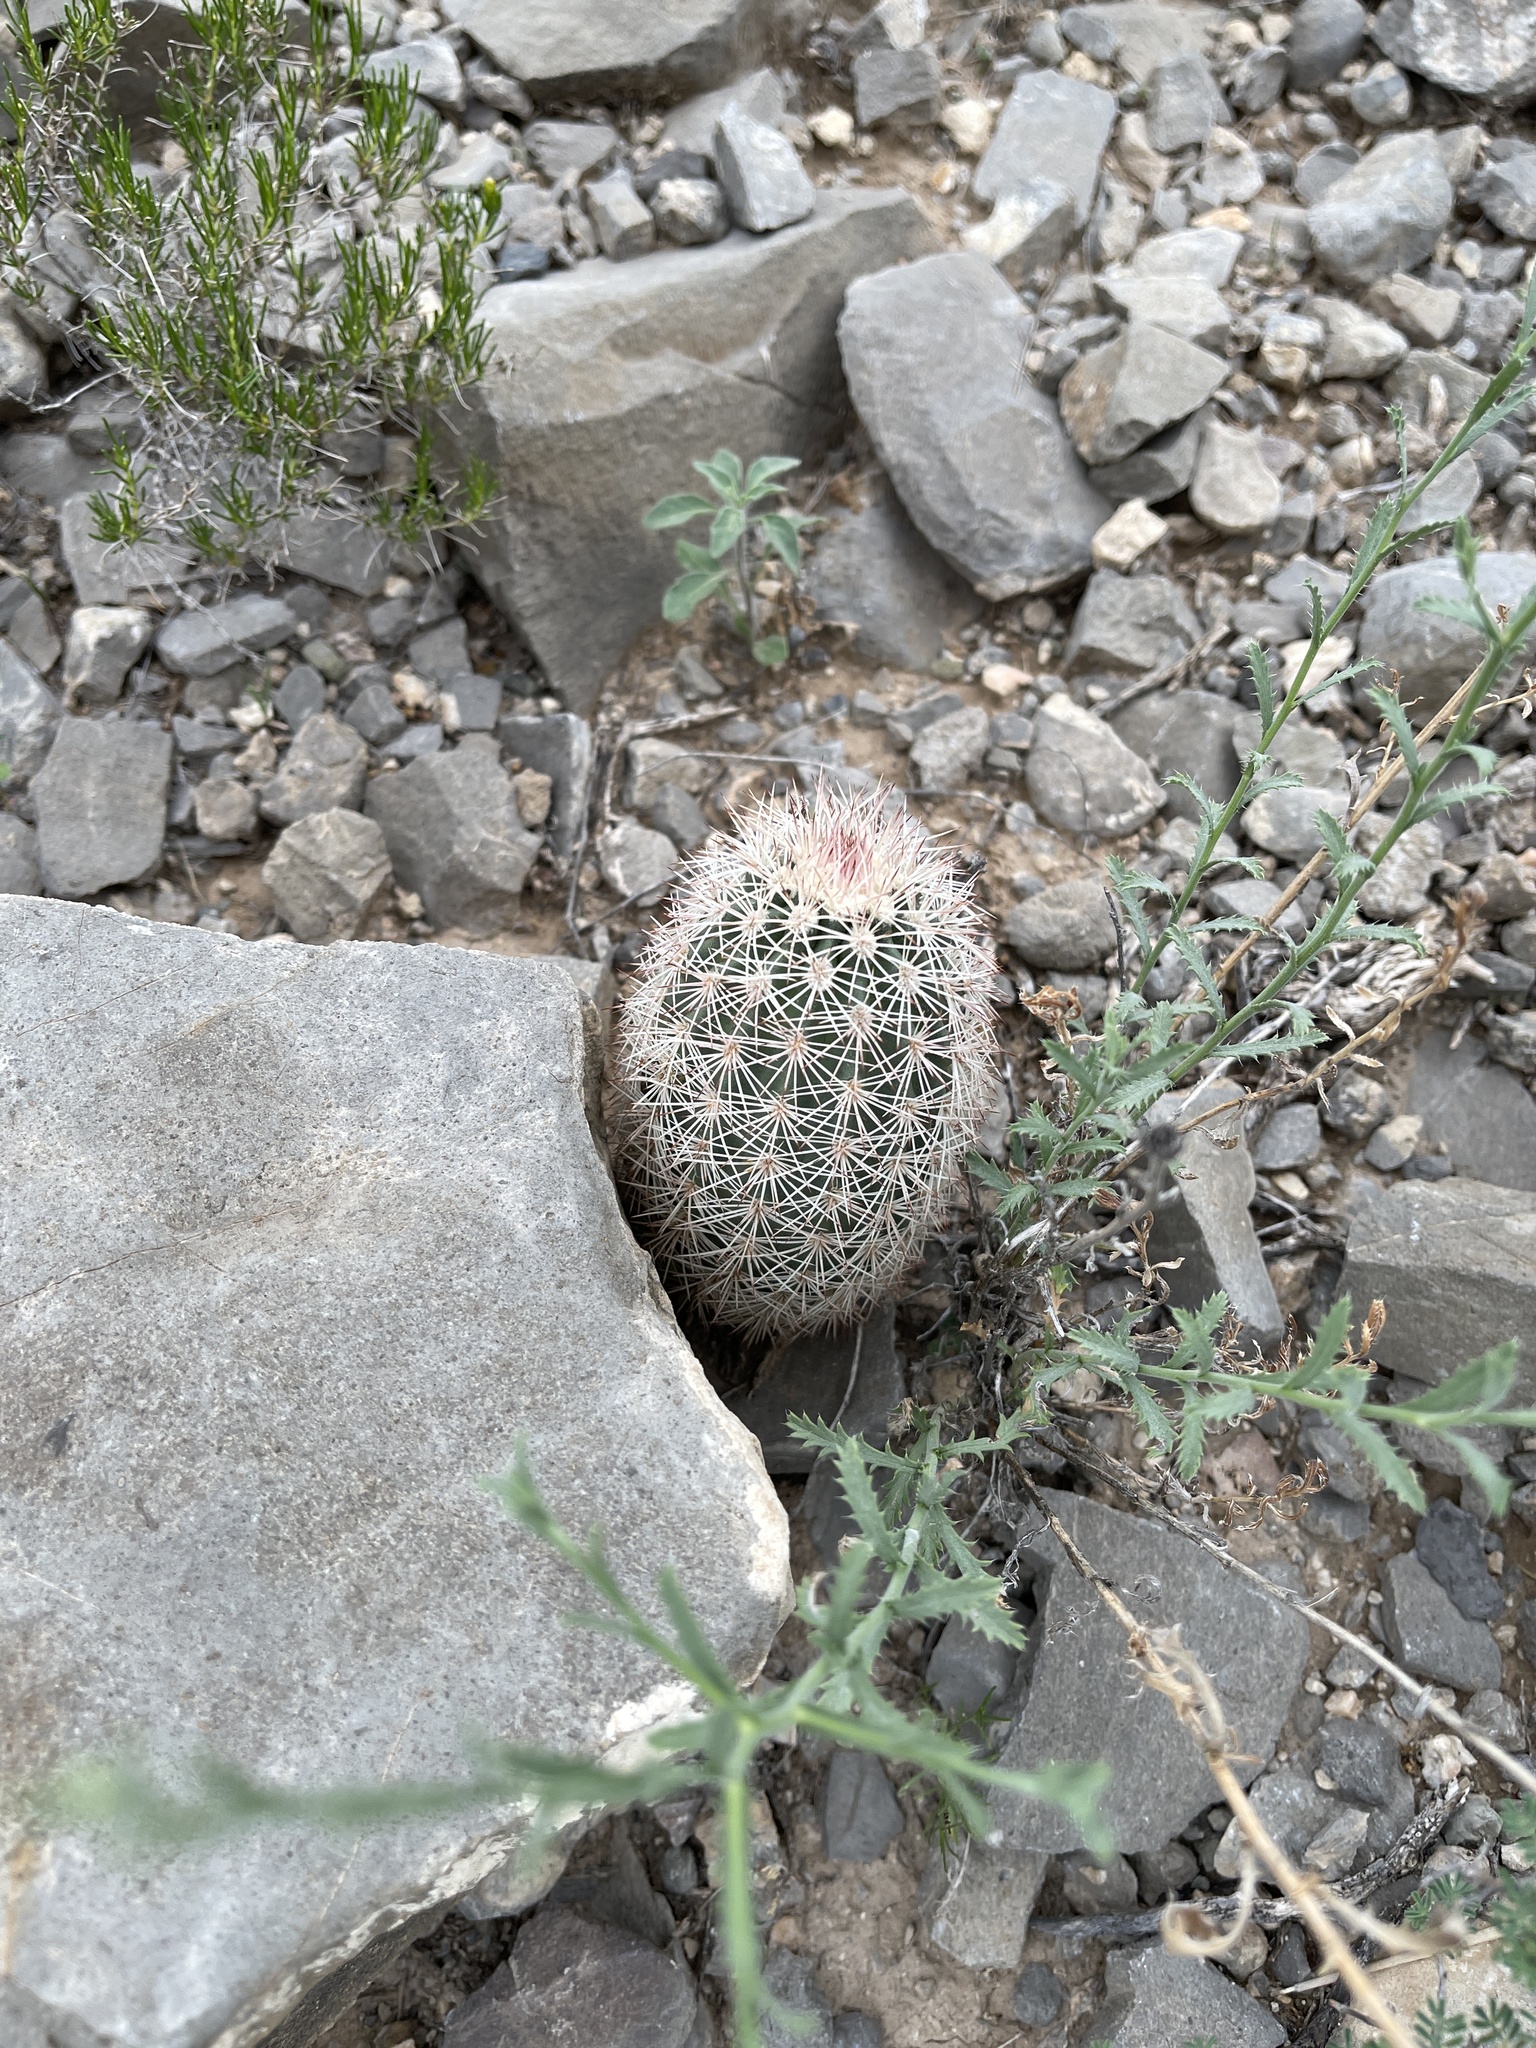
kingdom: Plantae
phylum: Tracheophyta
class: Magnoliopsida
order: Caryophyllales
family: Cactaceae
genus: Echinocereus
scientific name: Echinocereus dasyacanthus
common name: Spiny hedgehog cactus
